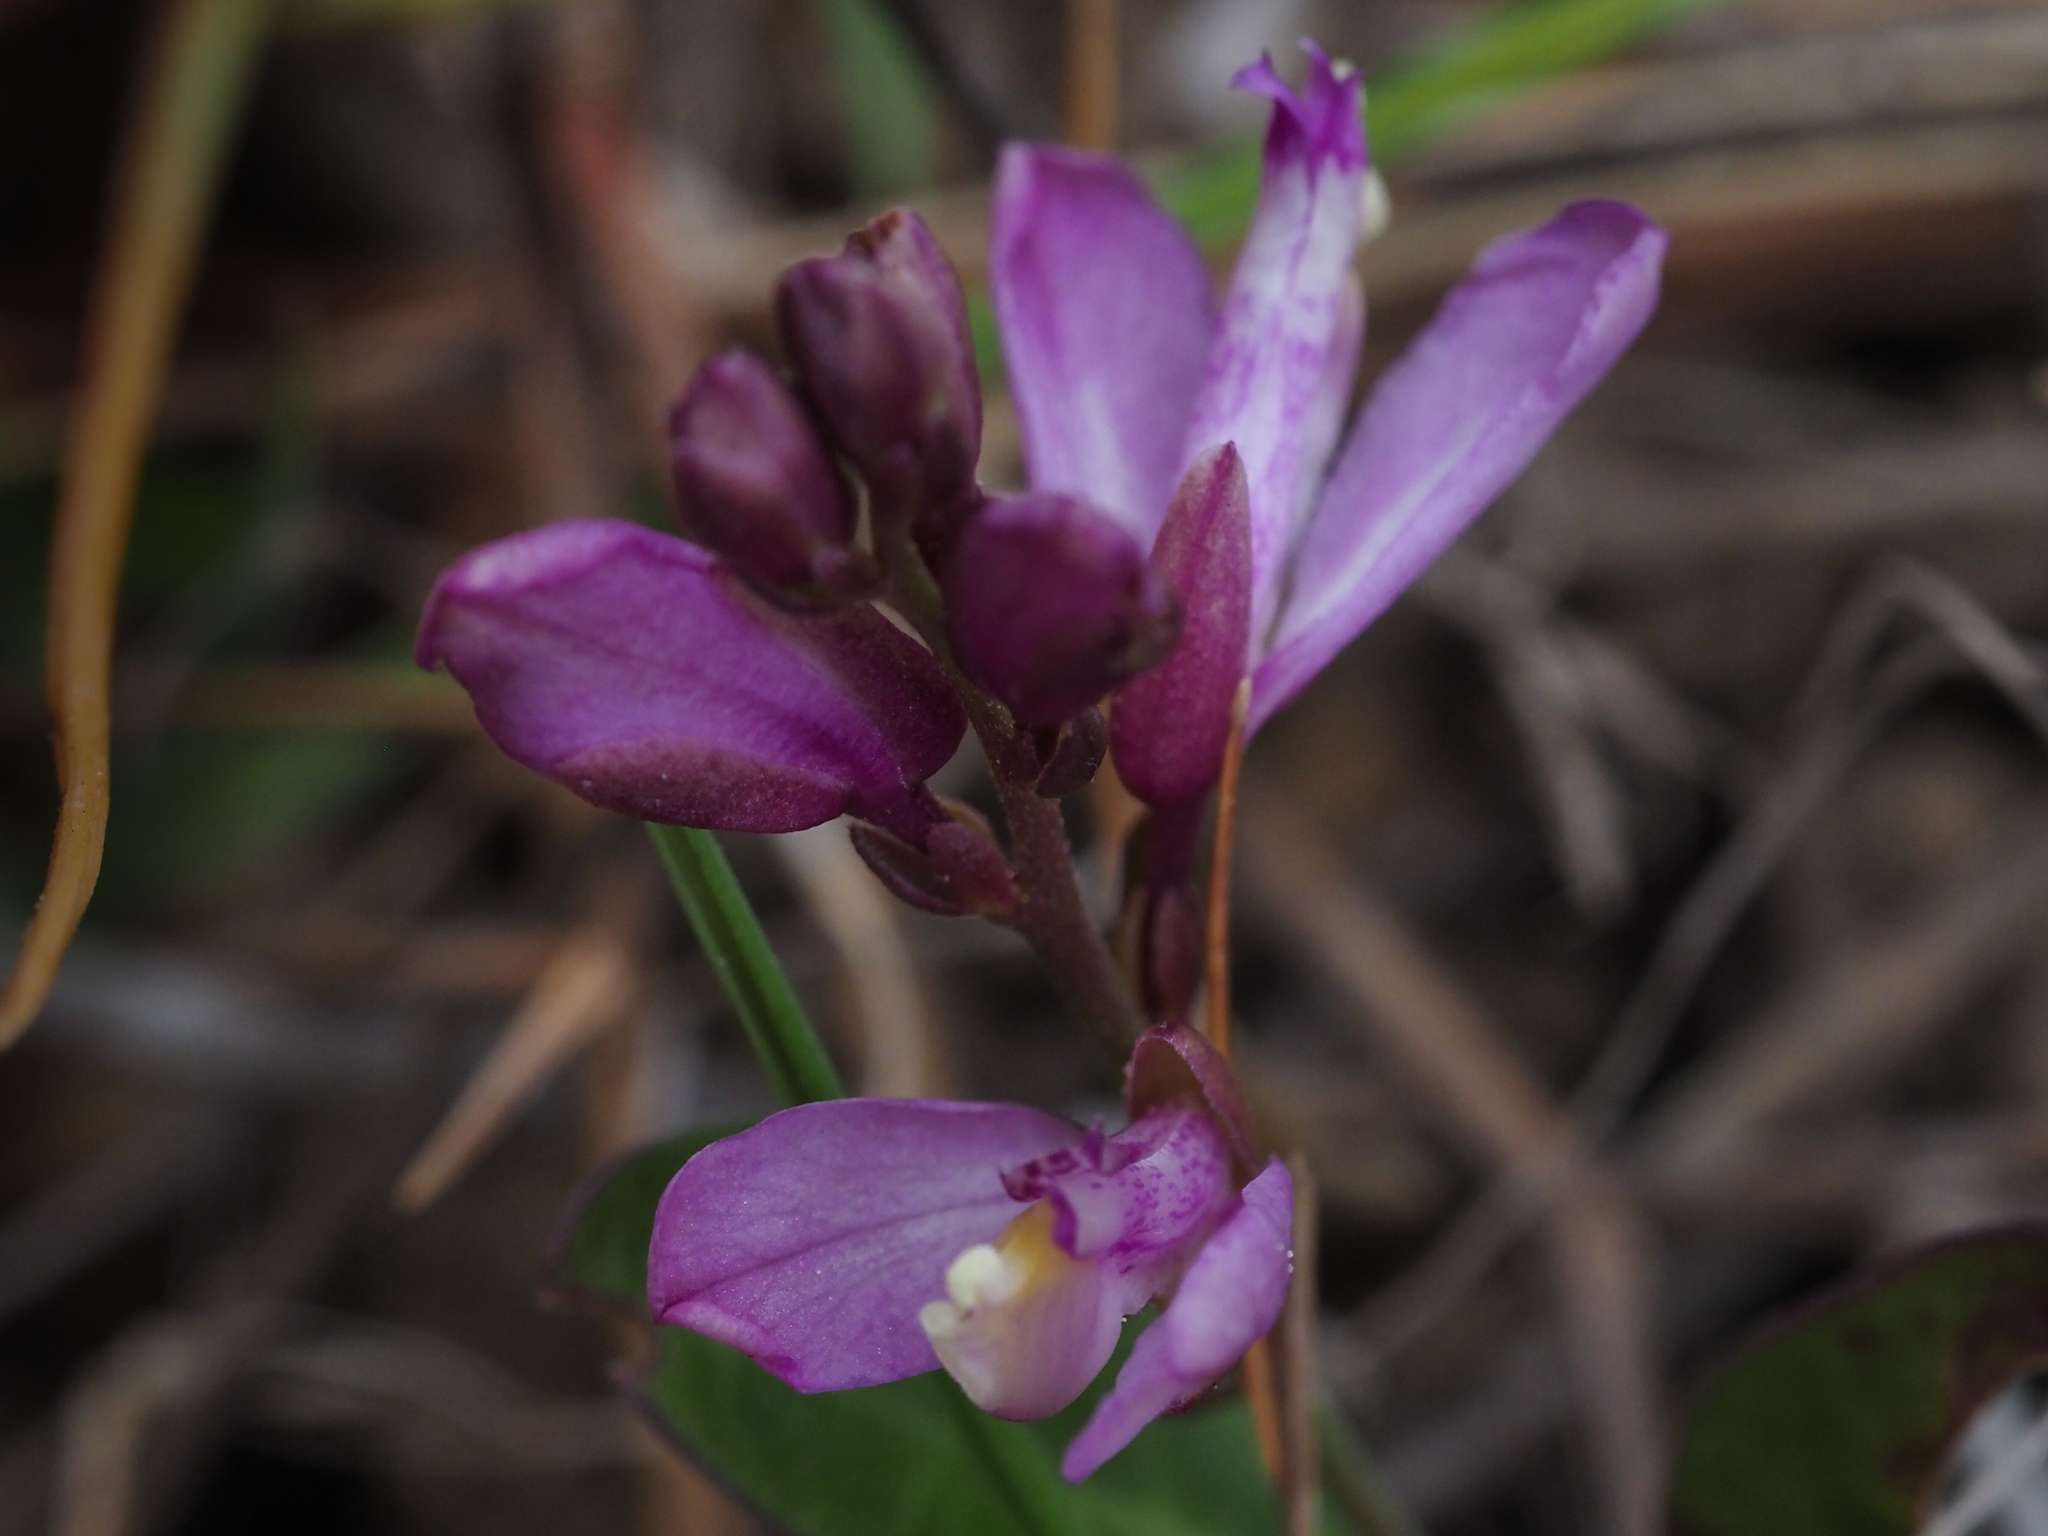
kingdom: Plantae
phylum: Tracheophyta
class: Magnoliopsida
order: Fabales
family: Polygalaceae
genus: Rhinotropis
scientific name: Rhinotropis californica
